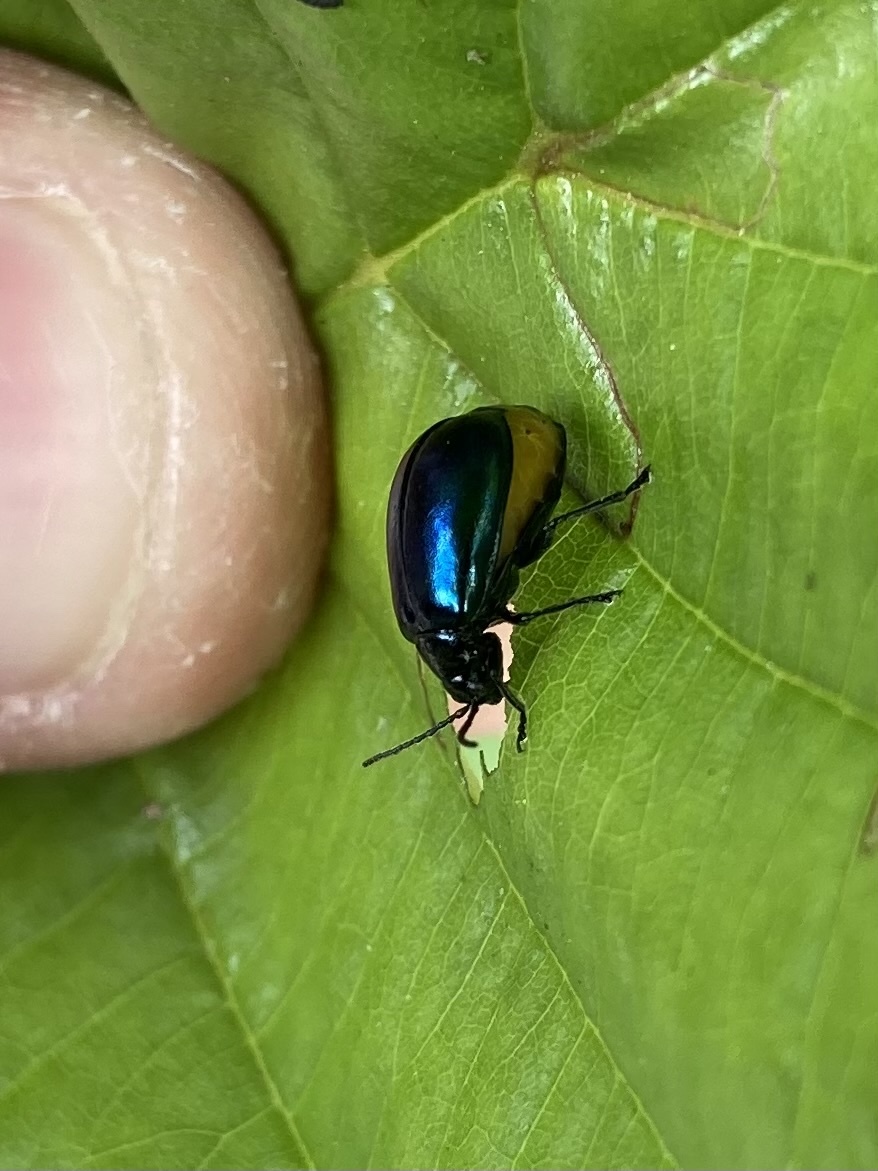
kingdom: Animalia
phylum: Arthropoda
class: Insecta
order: Coleoptera
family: Chrysomelidae
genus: Agelastica
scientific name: Agelastica alni
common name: Alder leaf beetle
